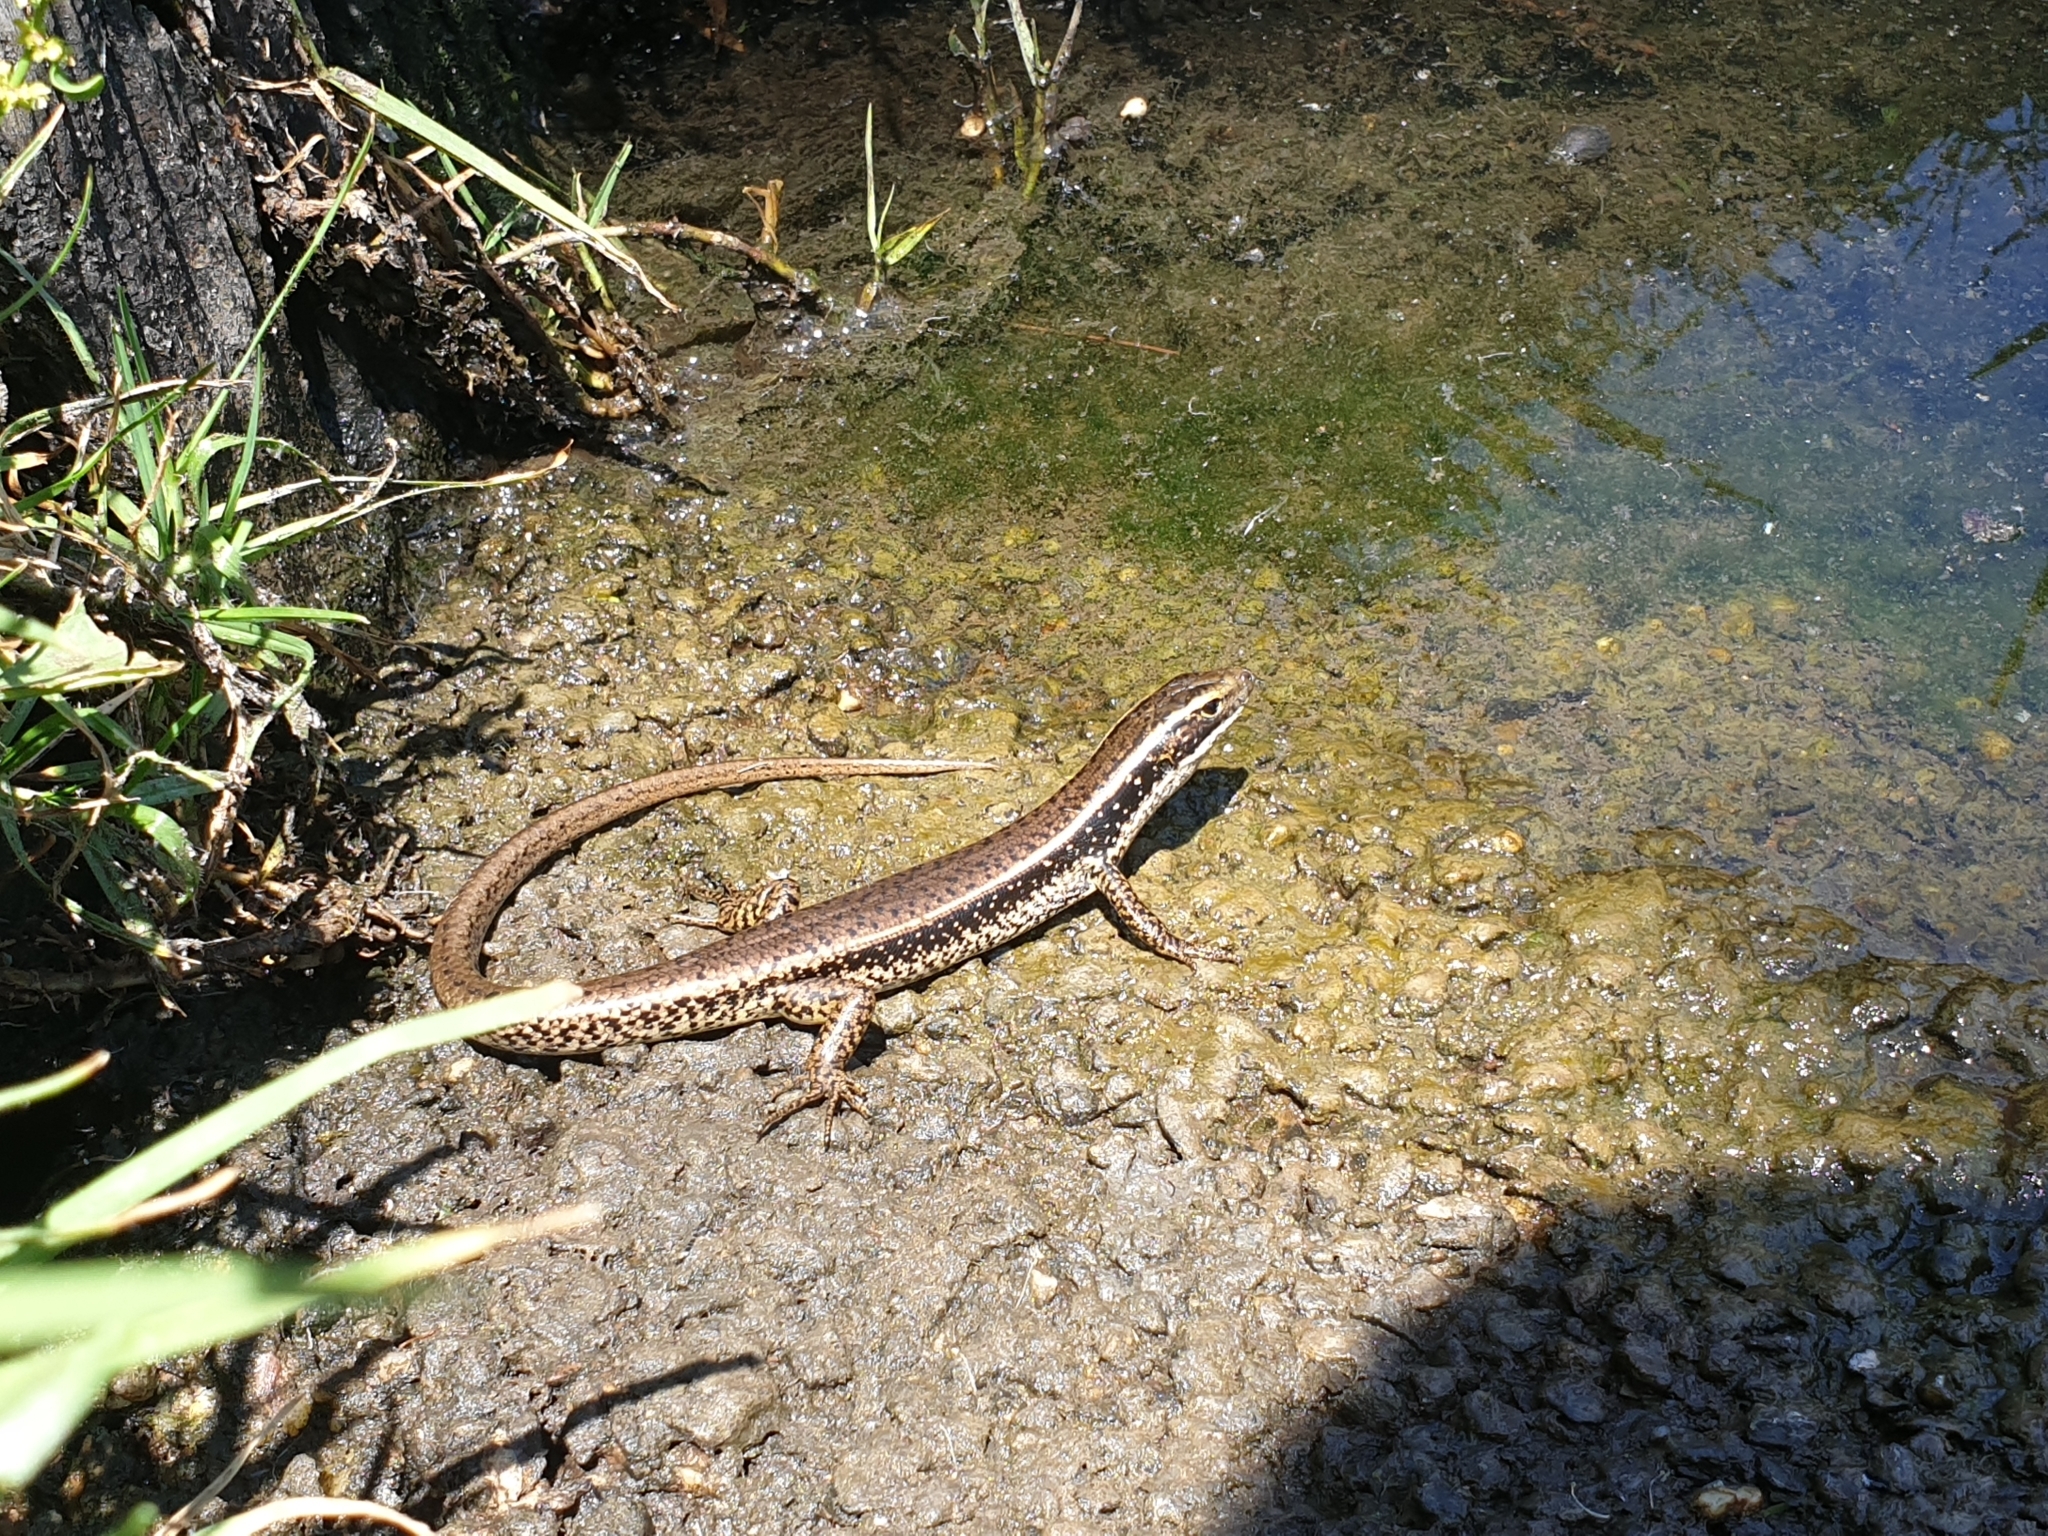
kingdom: Animalia
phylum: Chordata
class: Squamata
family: Scincidae
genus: Eulamprus
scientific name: Eulamprus quoyii
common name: Eastern water skink
